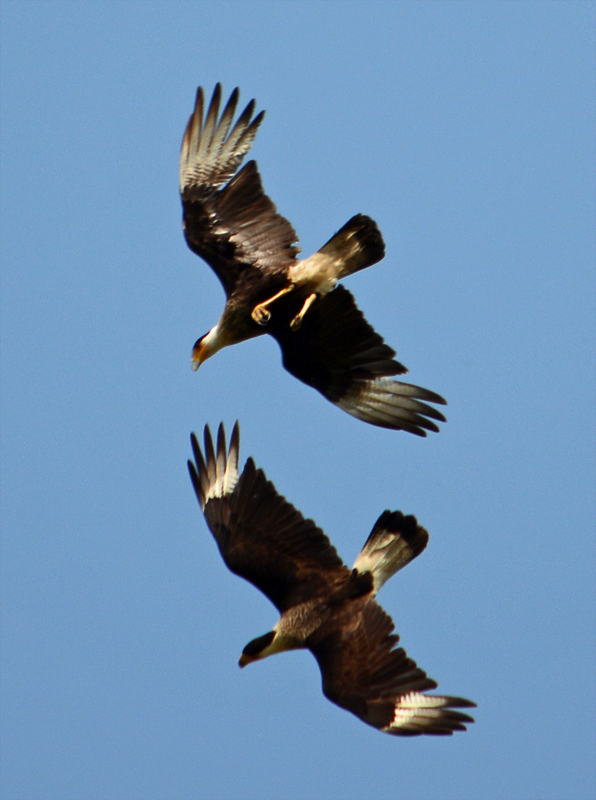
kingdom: Animalia
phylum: Chordata
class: Aves
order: Falconiformes
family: Falconidae
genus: Caracara
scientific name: Caracara plancus
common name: Southern caracara
